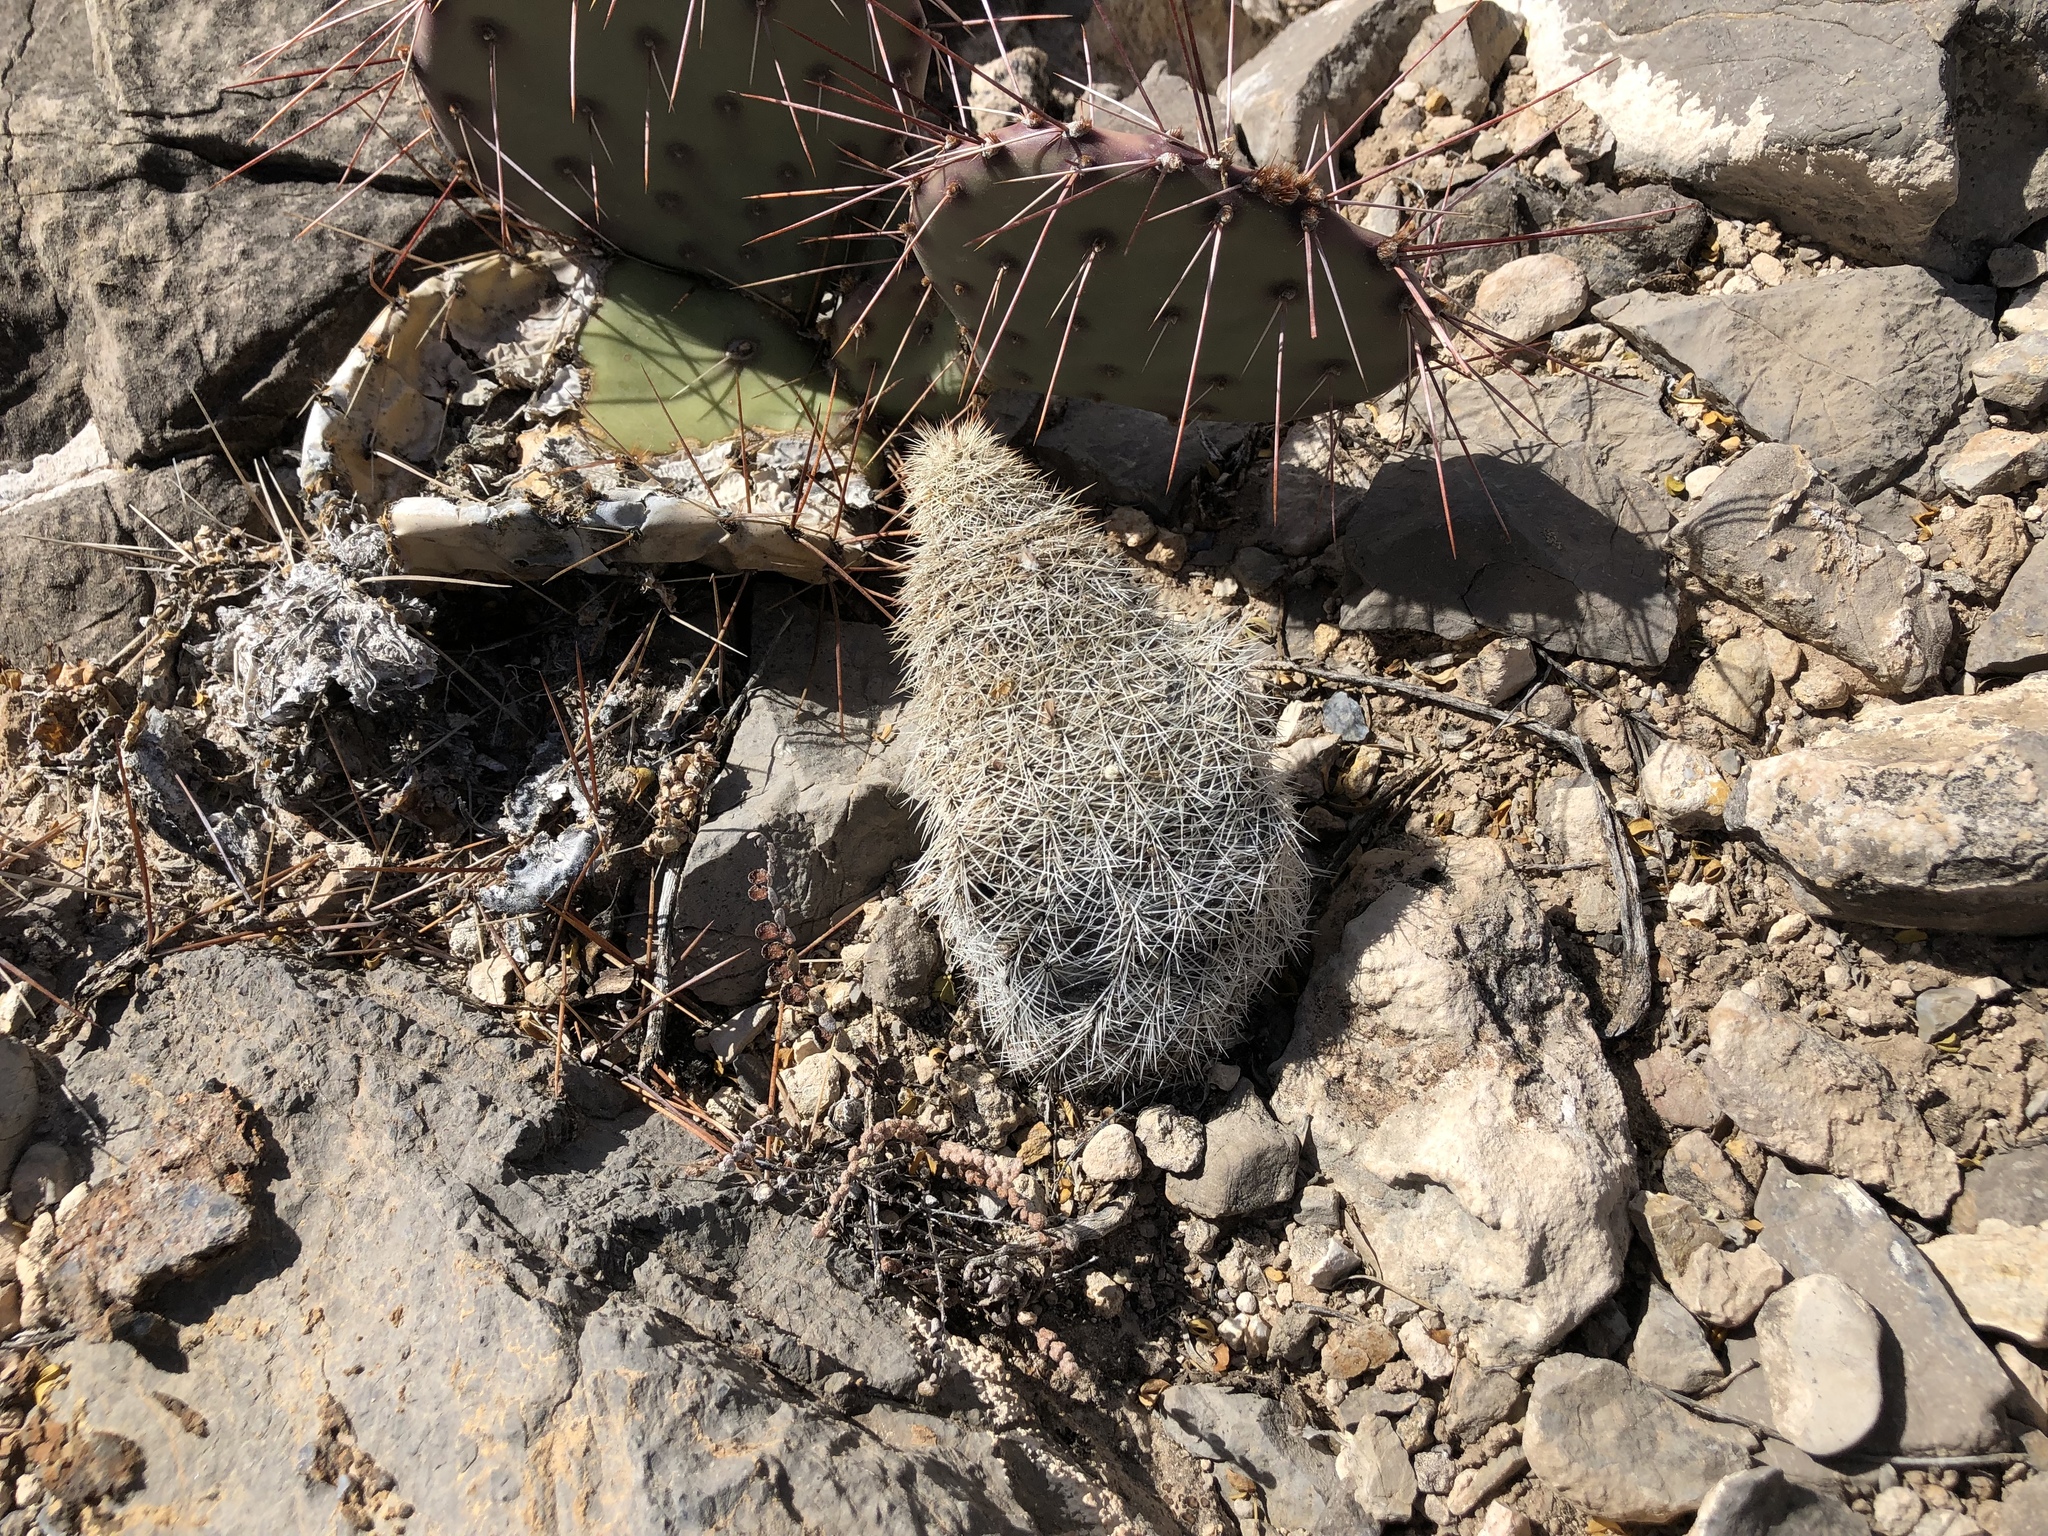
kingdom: Plantae
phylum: Tracheophyta
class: Magnoliopsida
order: Caryophyllales
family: Cactaceae
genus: Echinocereus
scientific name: Echinocereus dasyacanthus
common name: Spiny hedgehog cactus
